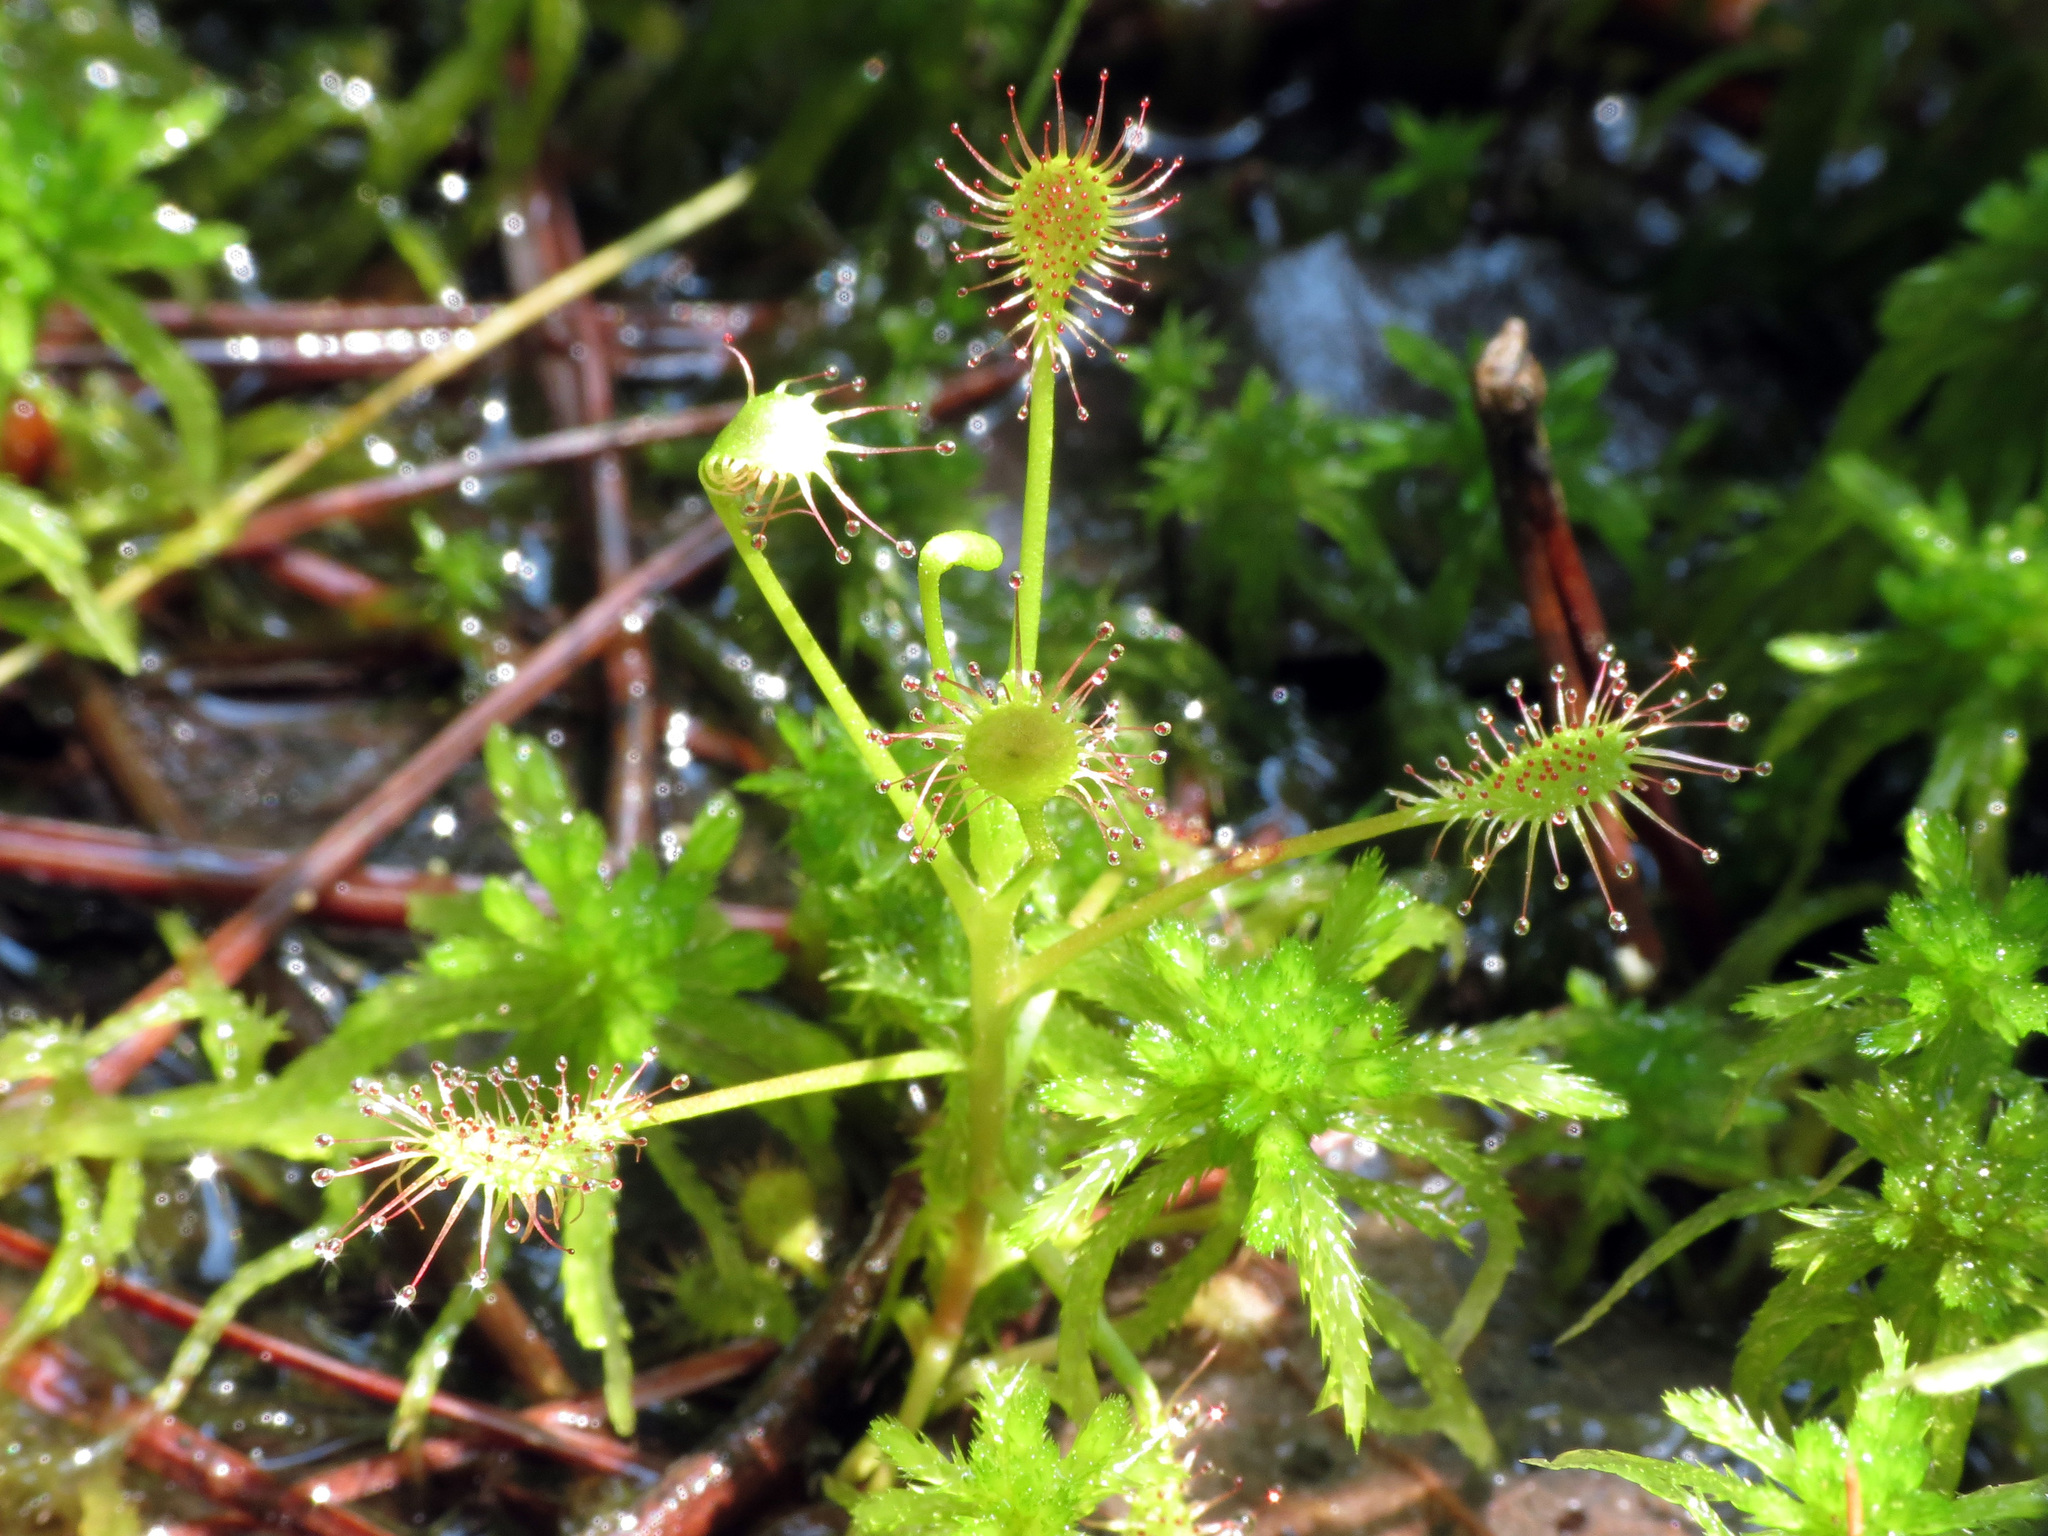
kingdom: Plantae
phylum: Tracheophyta
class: Magnoliopsida
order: Caryophyllales
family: Droseraceae
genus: Drosera
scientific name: Drosera intermedia
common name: Oblong-leaved sundew
